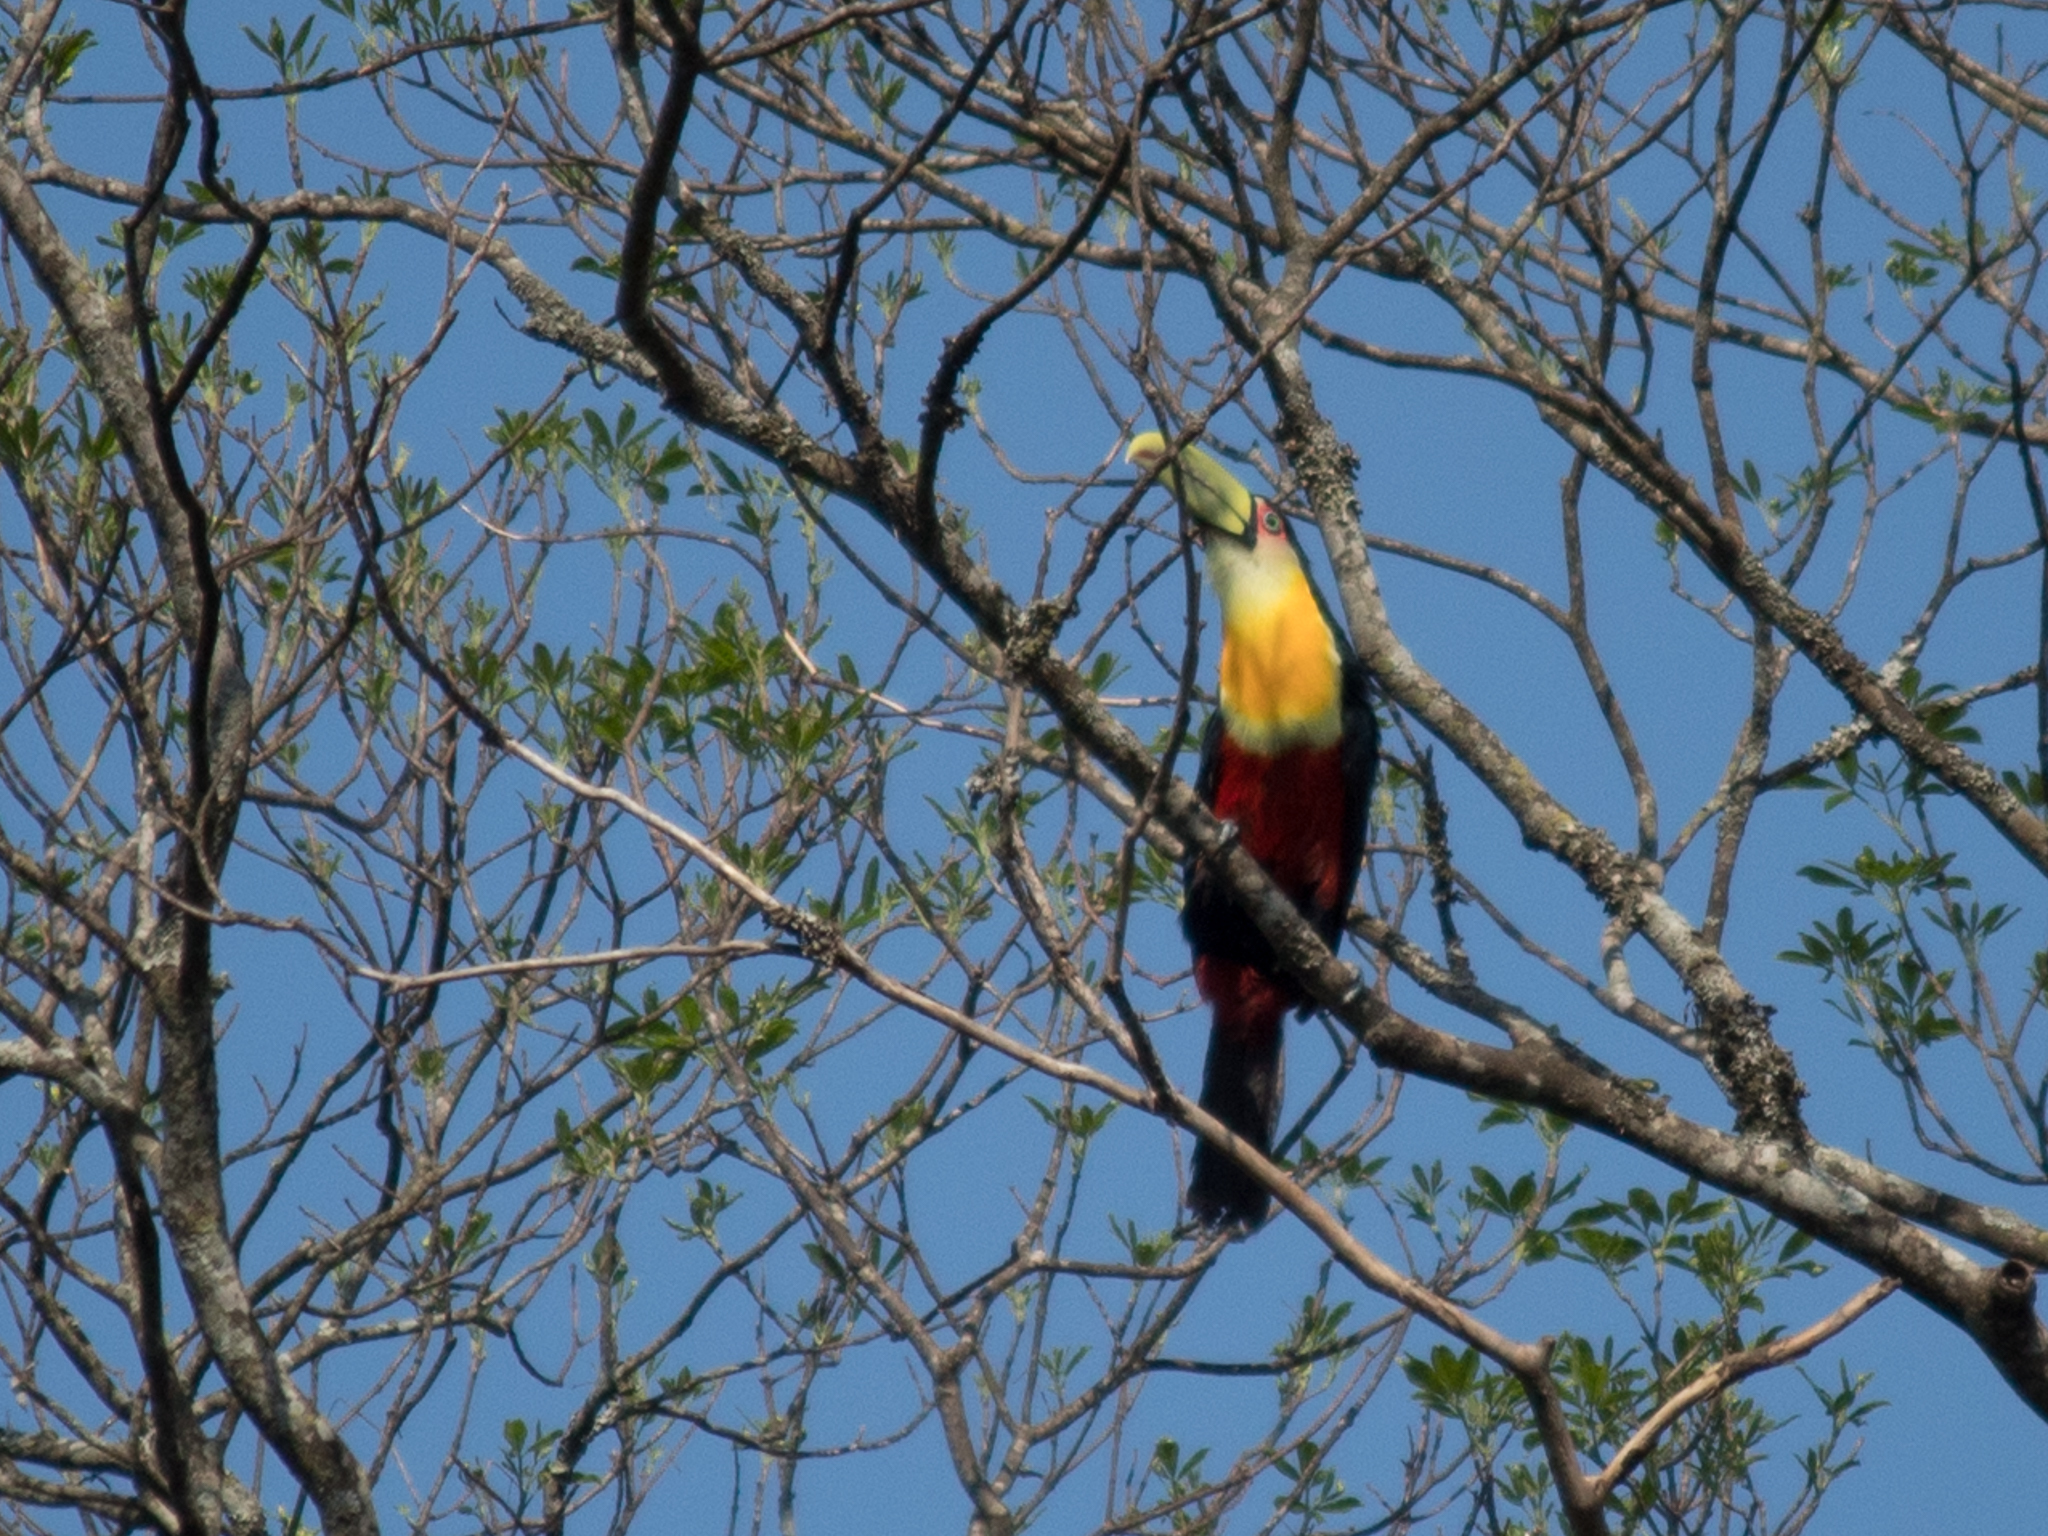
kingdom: Animalia
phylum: Chordata
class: Aves
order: Piciformes
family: Ramphastidae
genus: Ramphastos
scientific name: Ramphastos dicolorus
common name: Green-billed toucan
